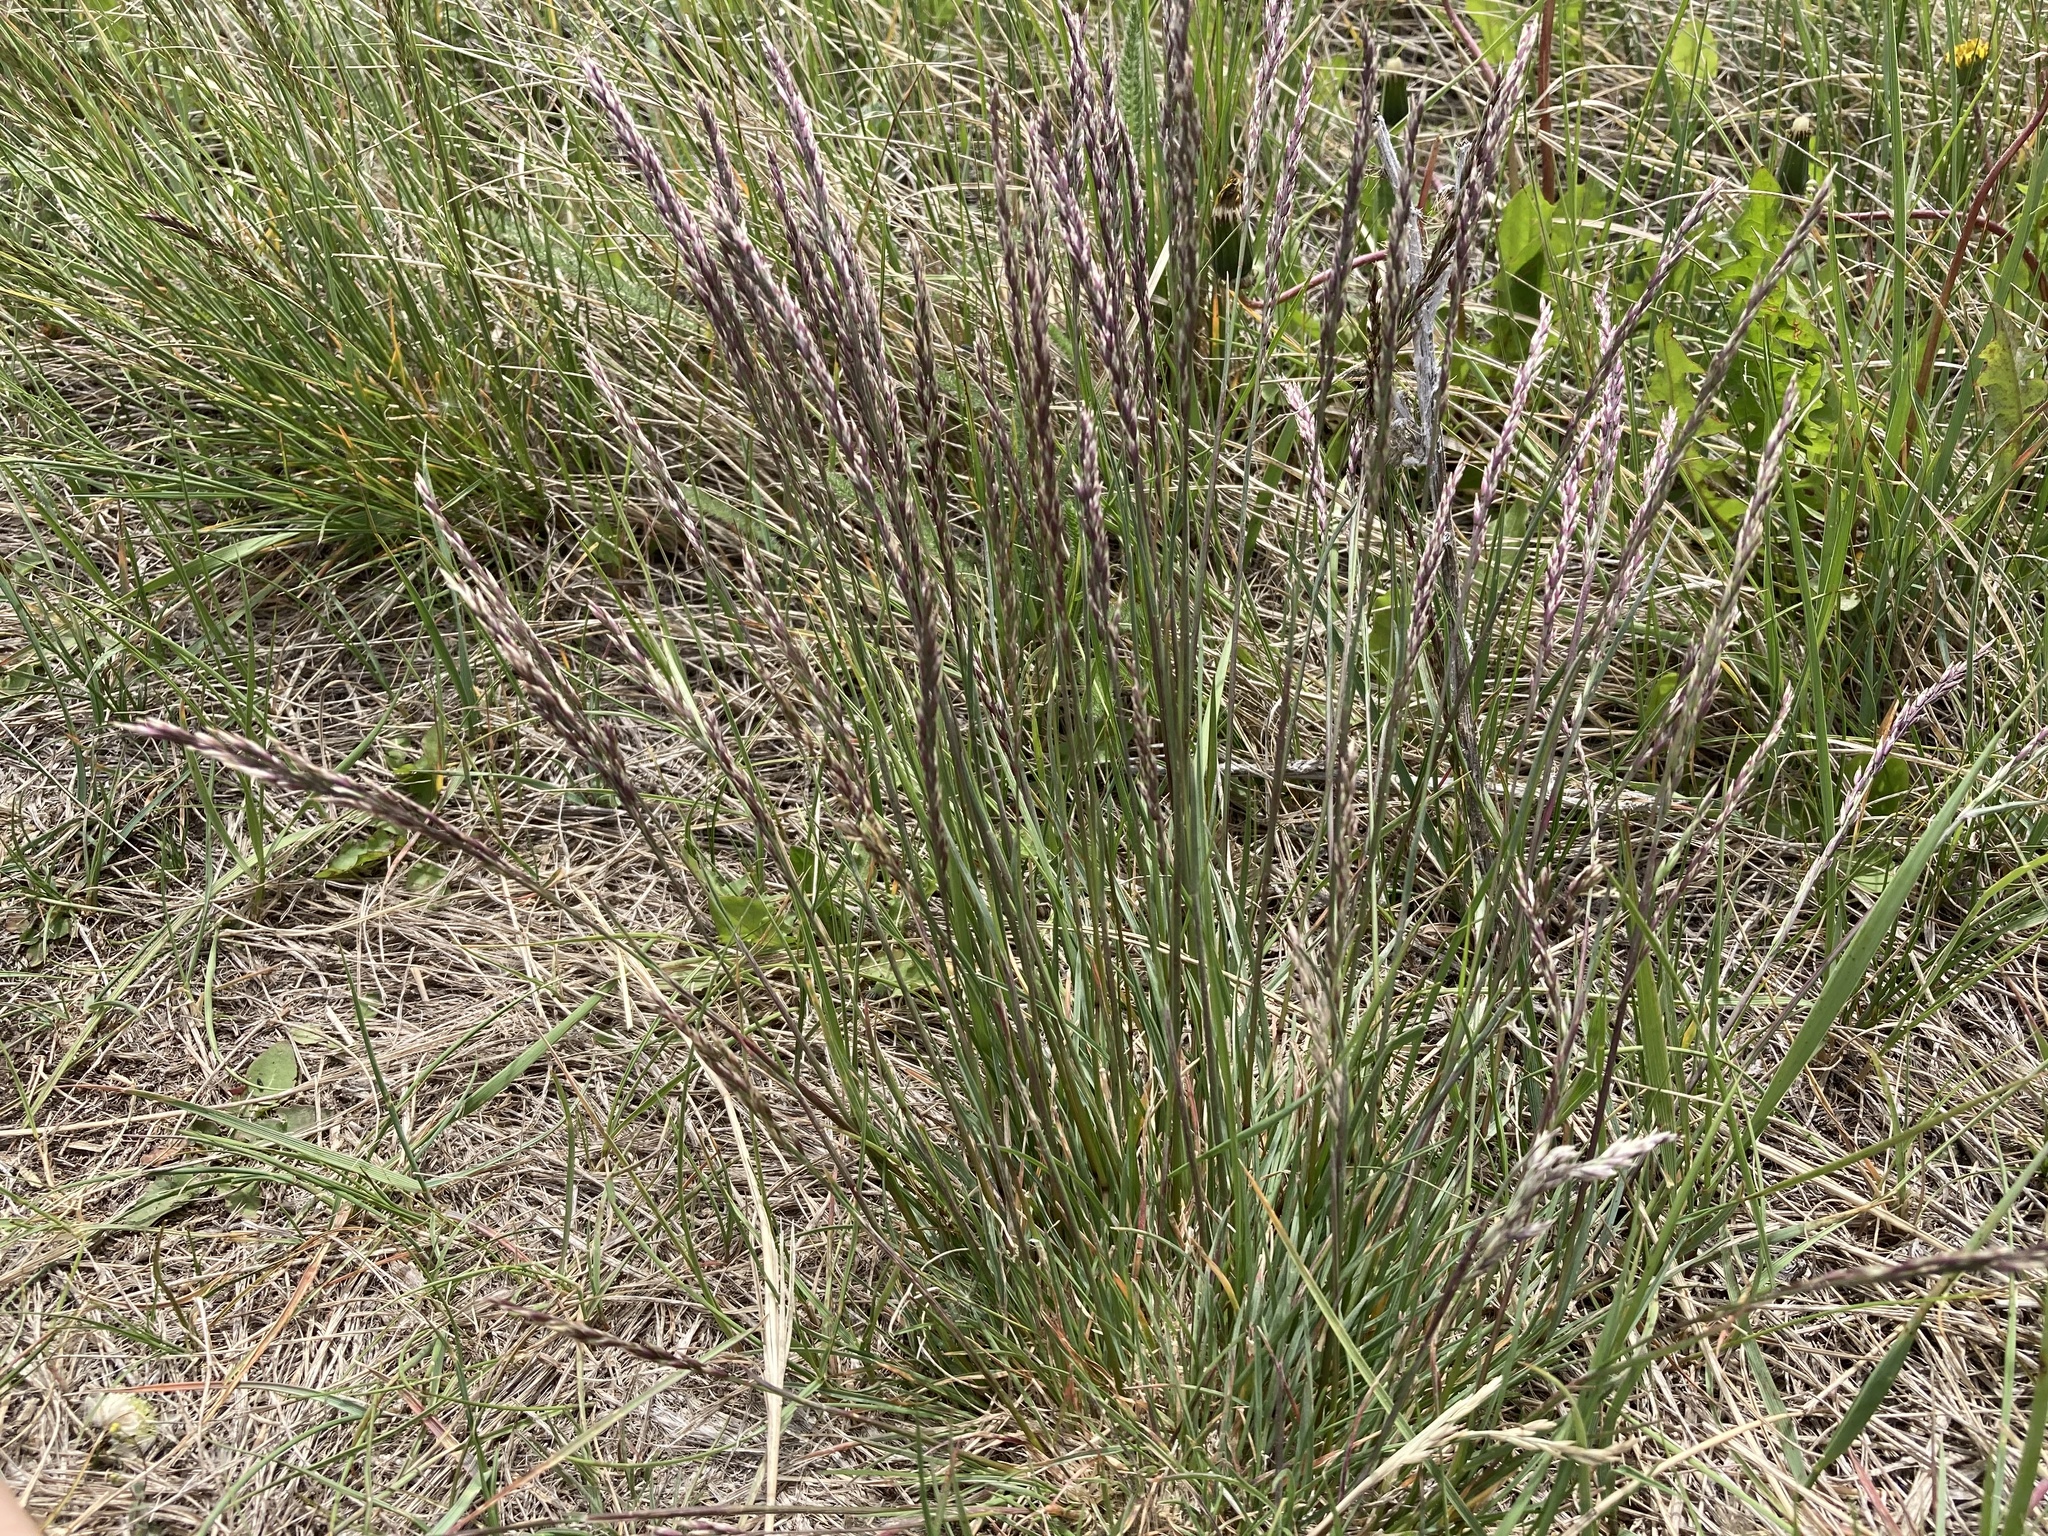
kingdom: Plantae
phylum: Tracheophyta
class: Liliopsida
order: Poales
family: Poaceae
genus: Poa
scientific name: Poa secunda
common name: Sandberg bluegrass
